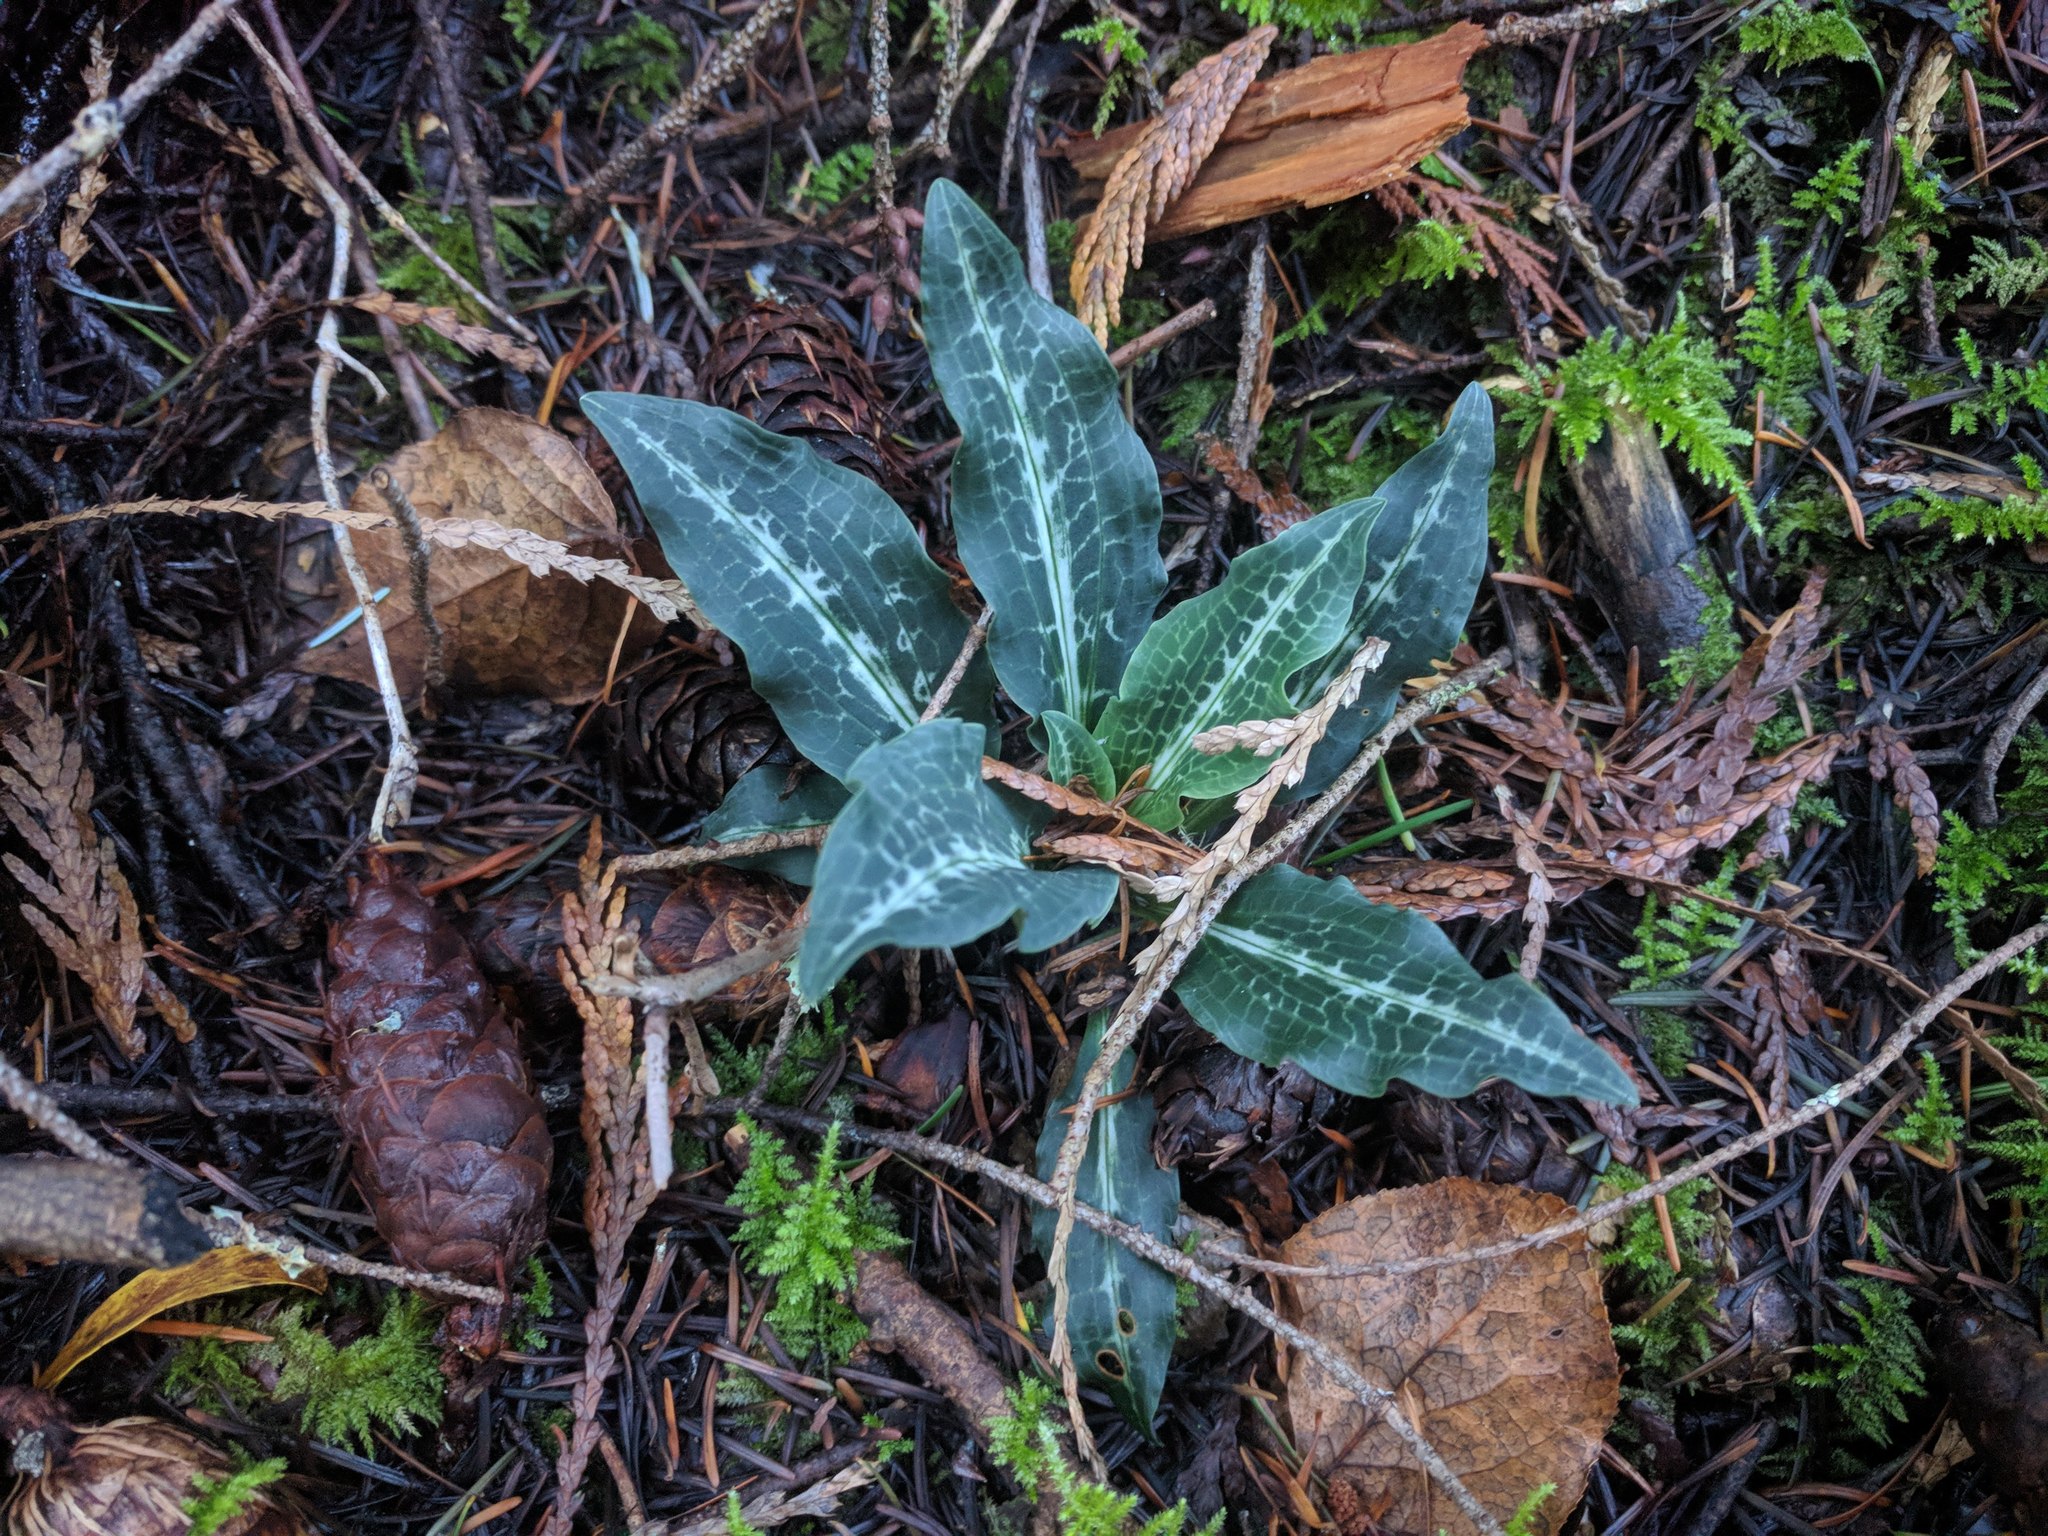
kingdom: Plantae
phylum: Tracheophyta
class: Liliopsida
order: Asparagales
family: Orchidaceae
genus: Goodyera
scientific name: Goodyera oblongifolia
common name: Giant rattlesnake-plantain
